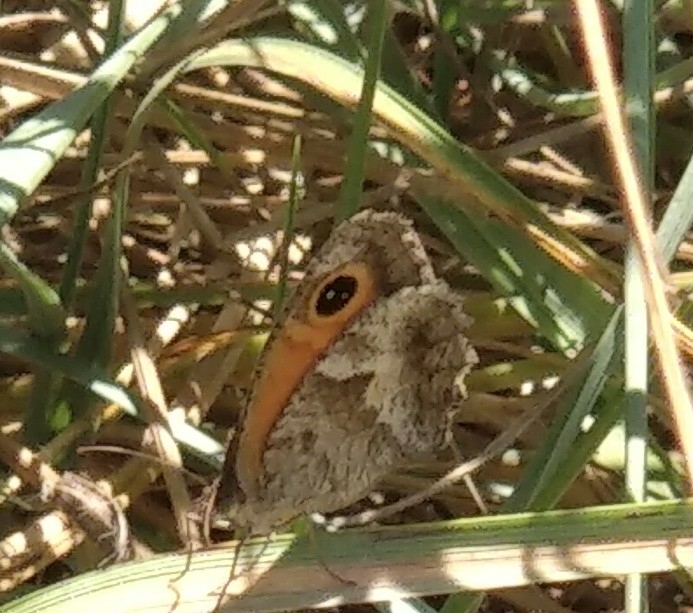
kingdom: Animalia
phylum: Arthropoda
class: Insecta
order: Lepidoptera
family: Nymphalidae
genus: Pyronia
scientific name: Pyronia cecilia
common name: Southern gatekeeper
